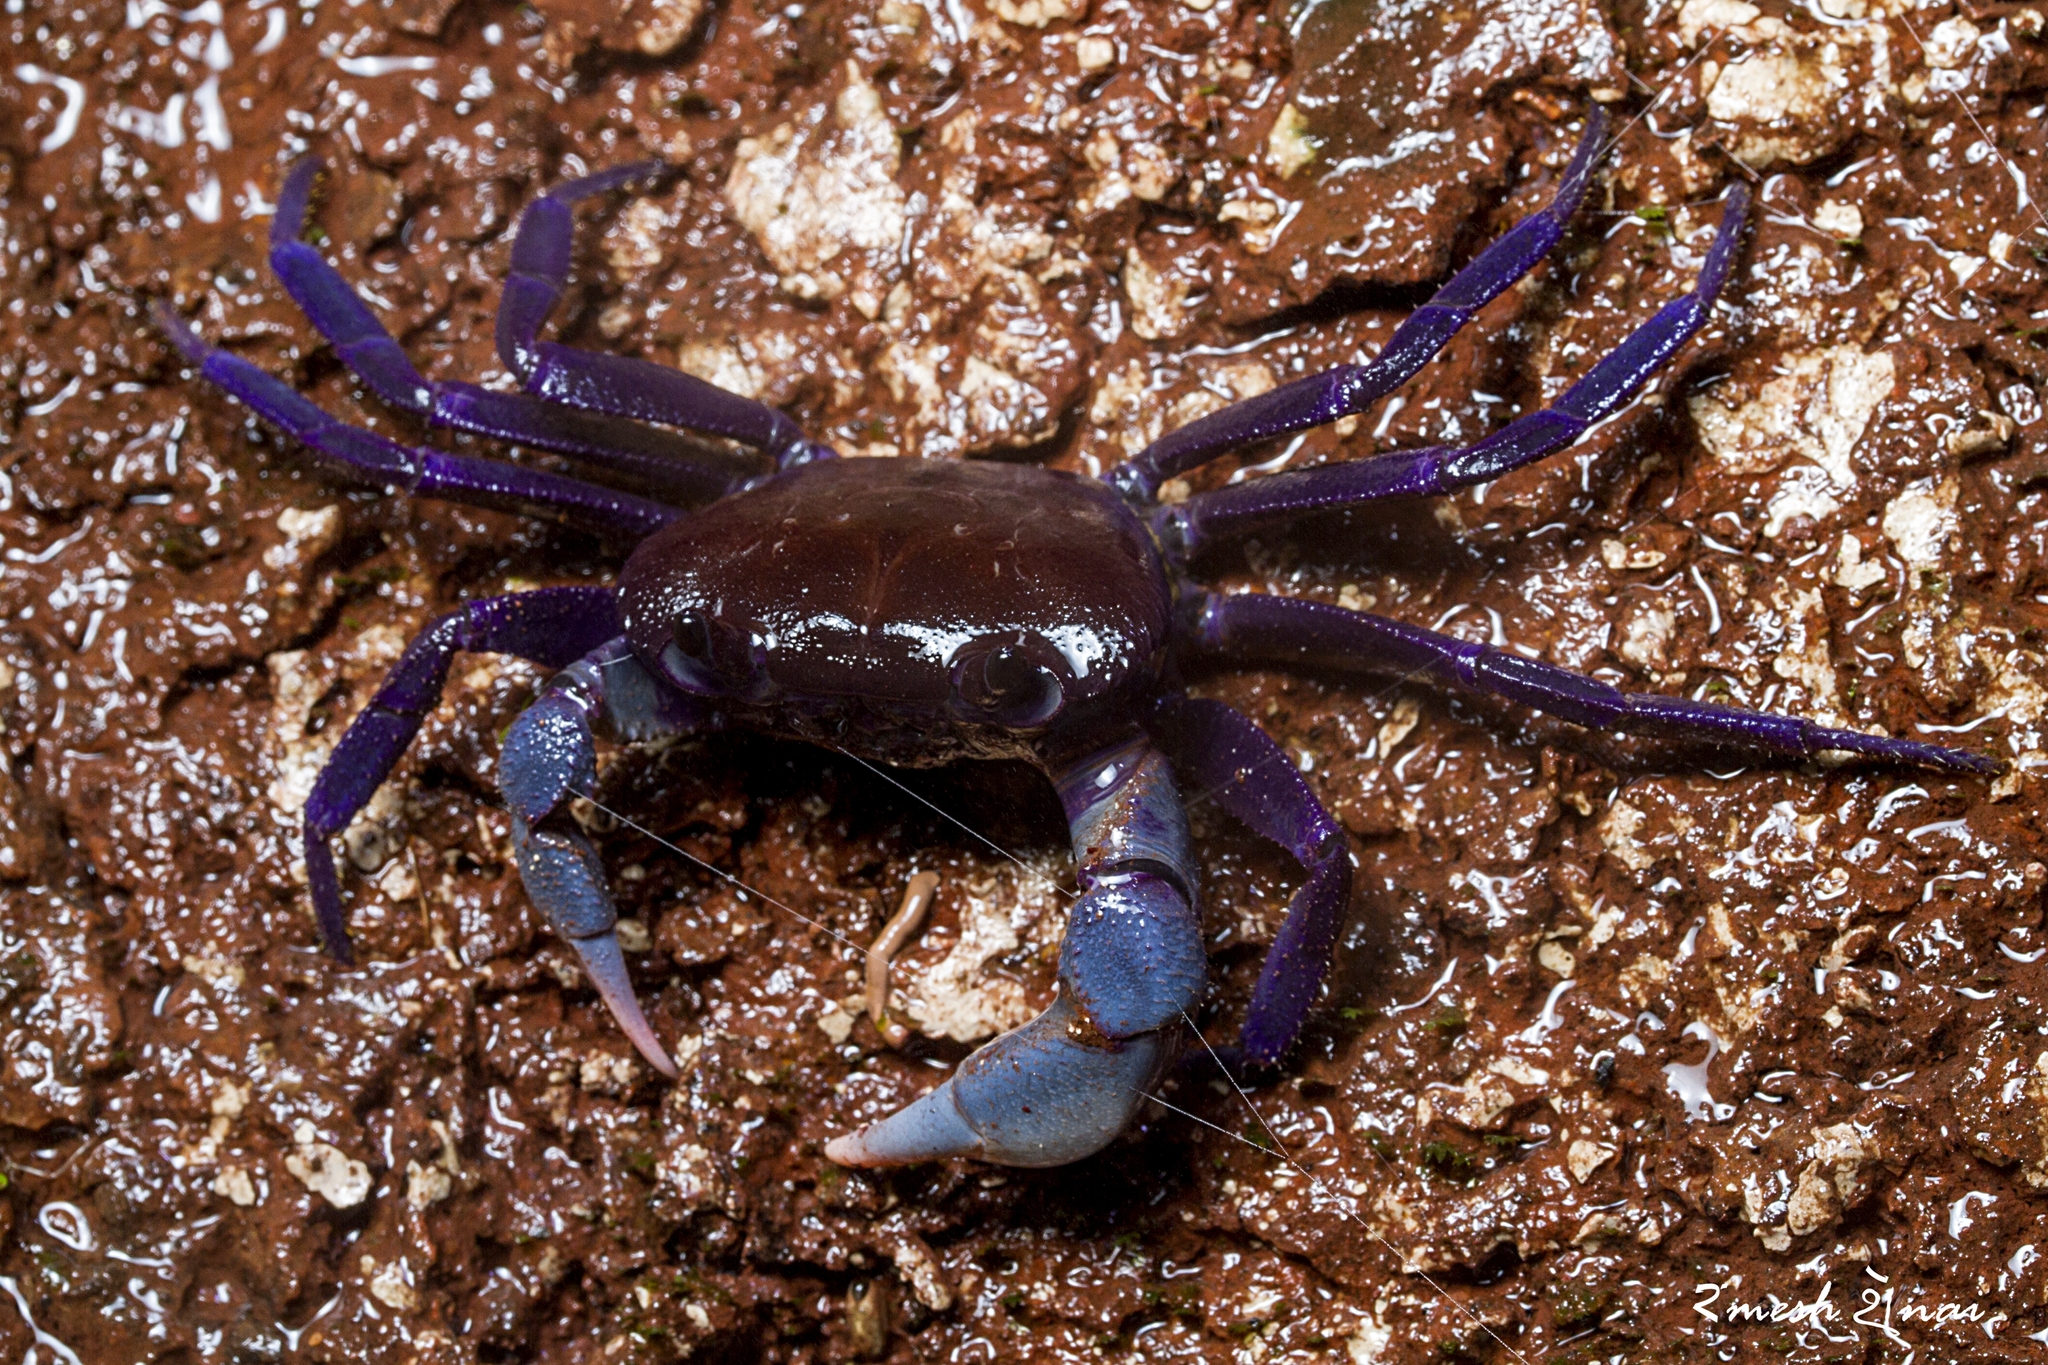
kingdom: Animalia
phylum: Arthropoda
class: Malacostraca
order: Decapoda
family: Gecarcinucidae
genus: Ghatiana
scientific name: Ghatiana atropurpurea
